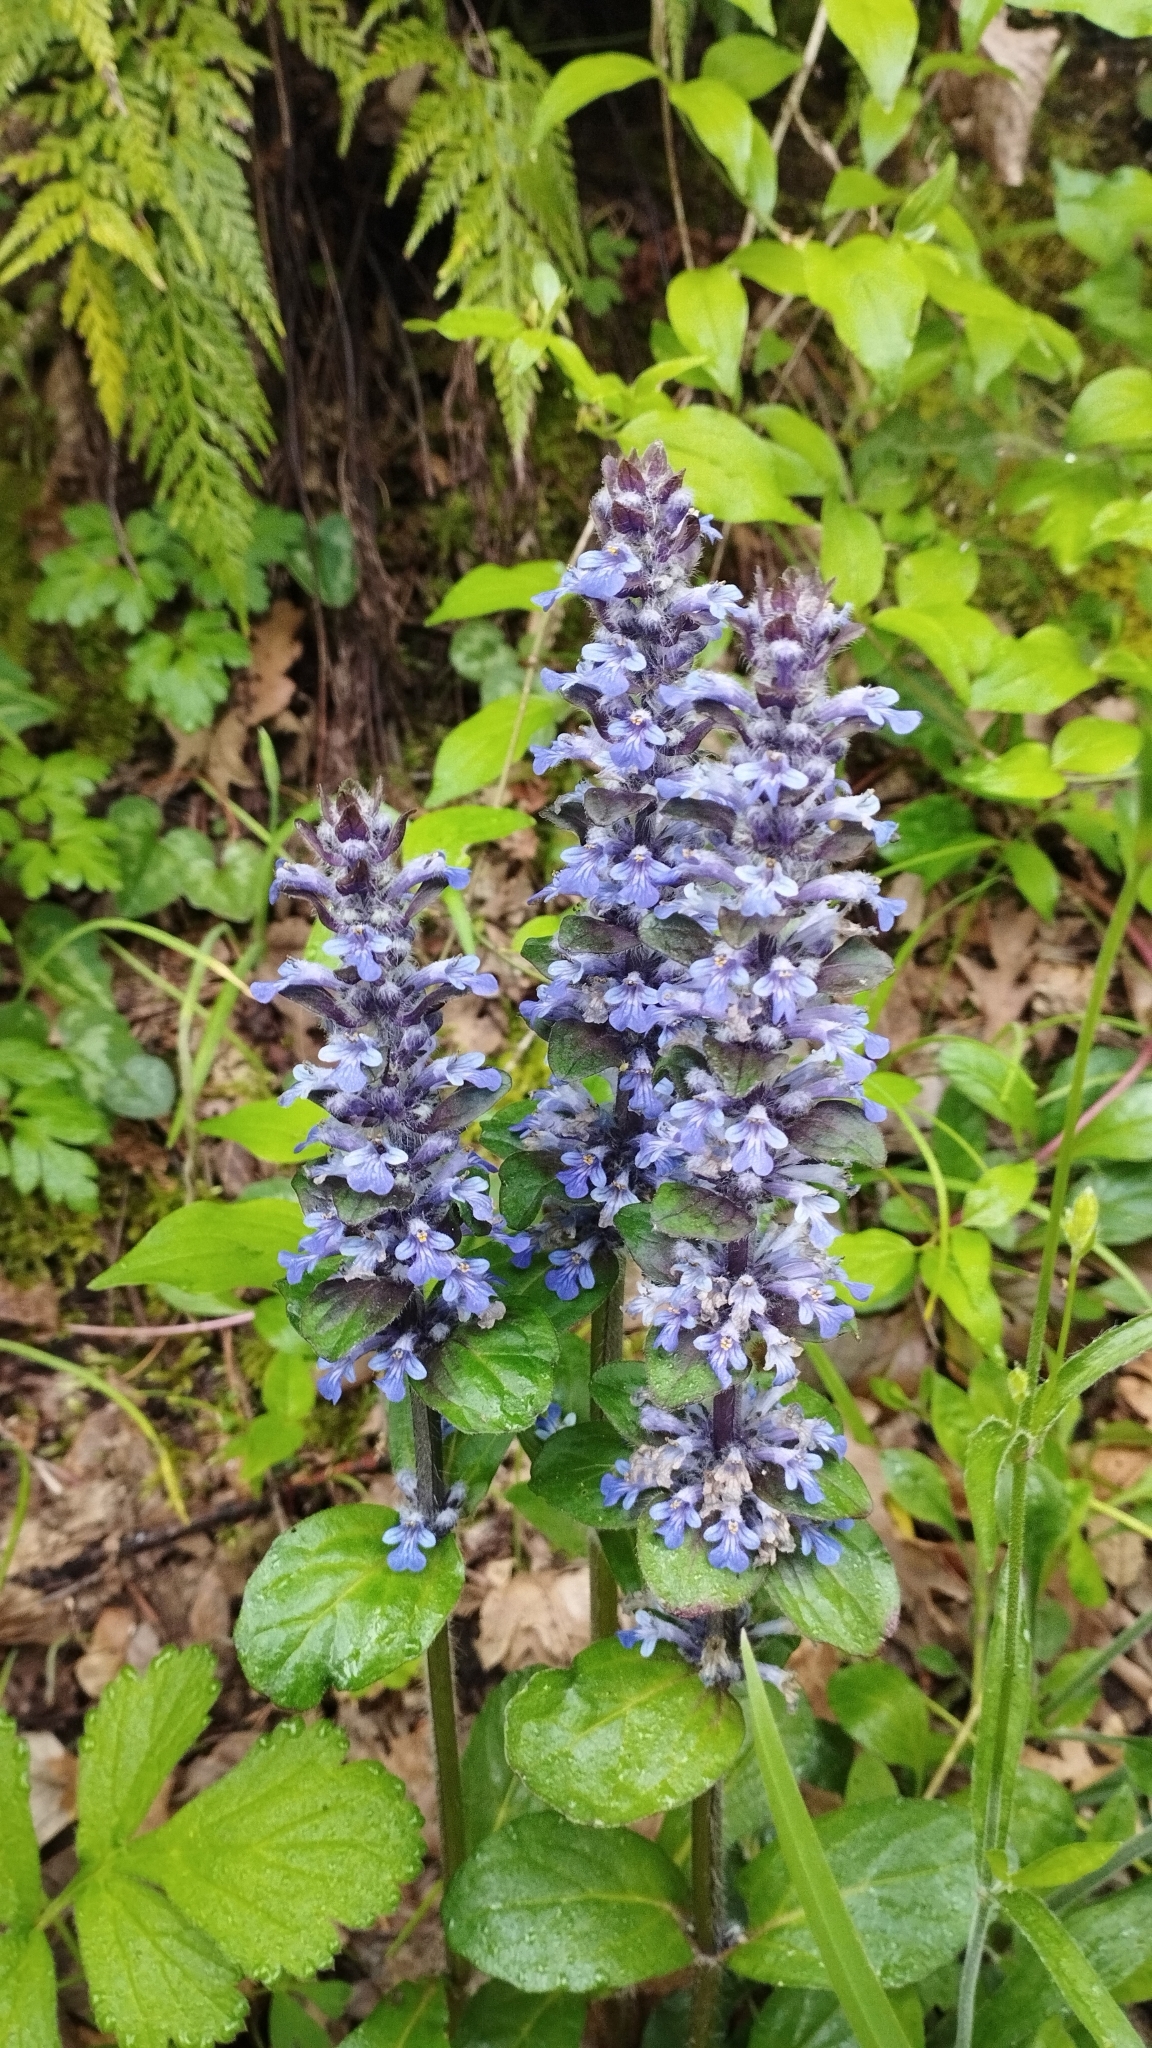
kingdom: Plantae
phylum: Tracheophyta
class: Magnoliopsida
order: Lamiales
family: Lamiaceae
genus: Ajuga
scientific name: Ajuga reptans
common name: Bugle
